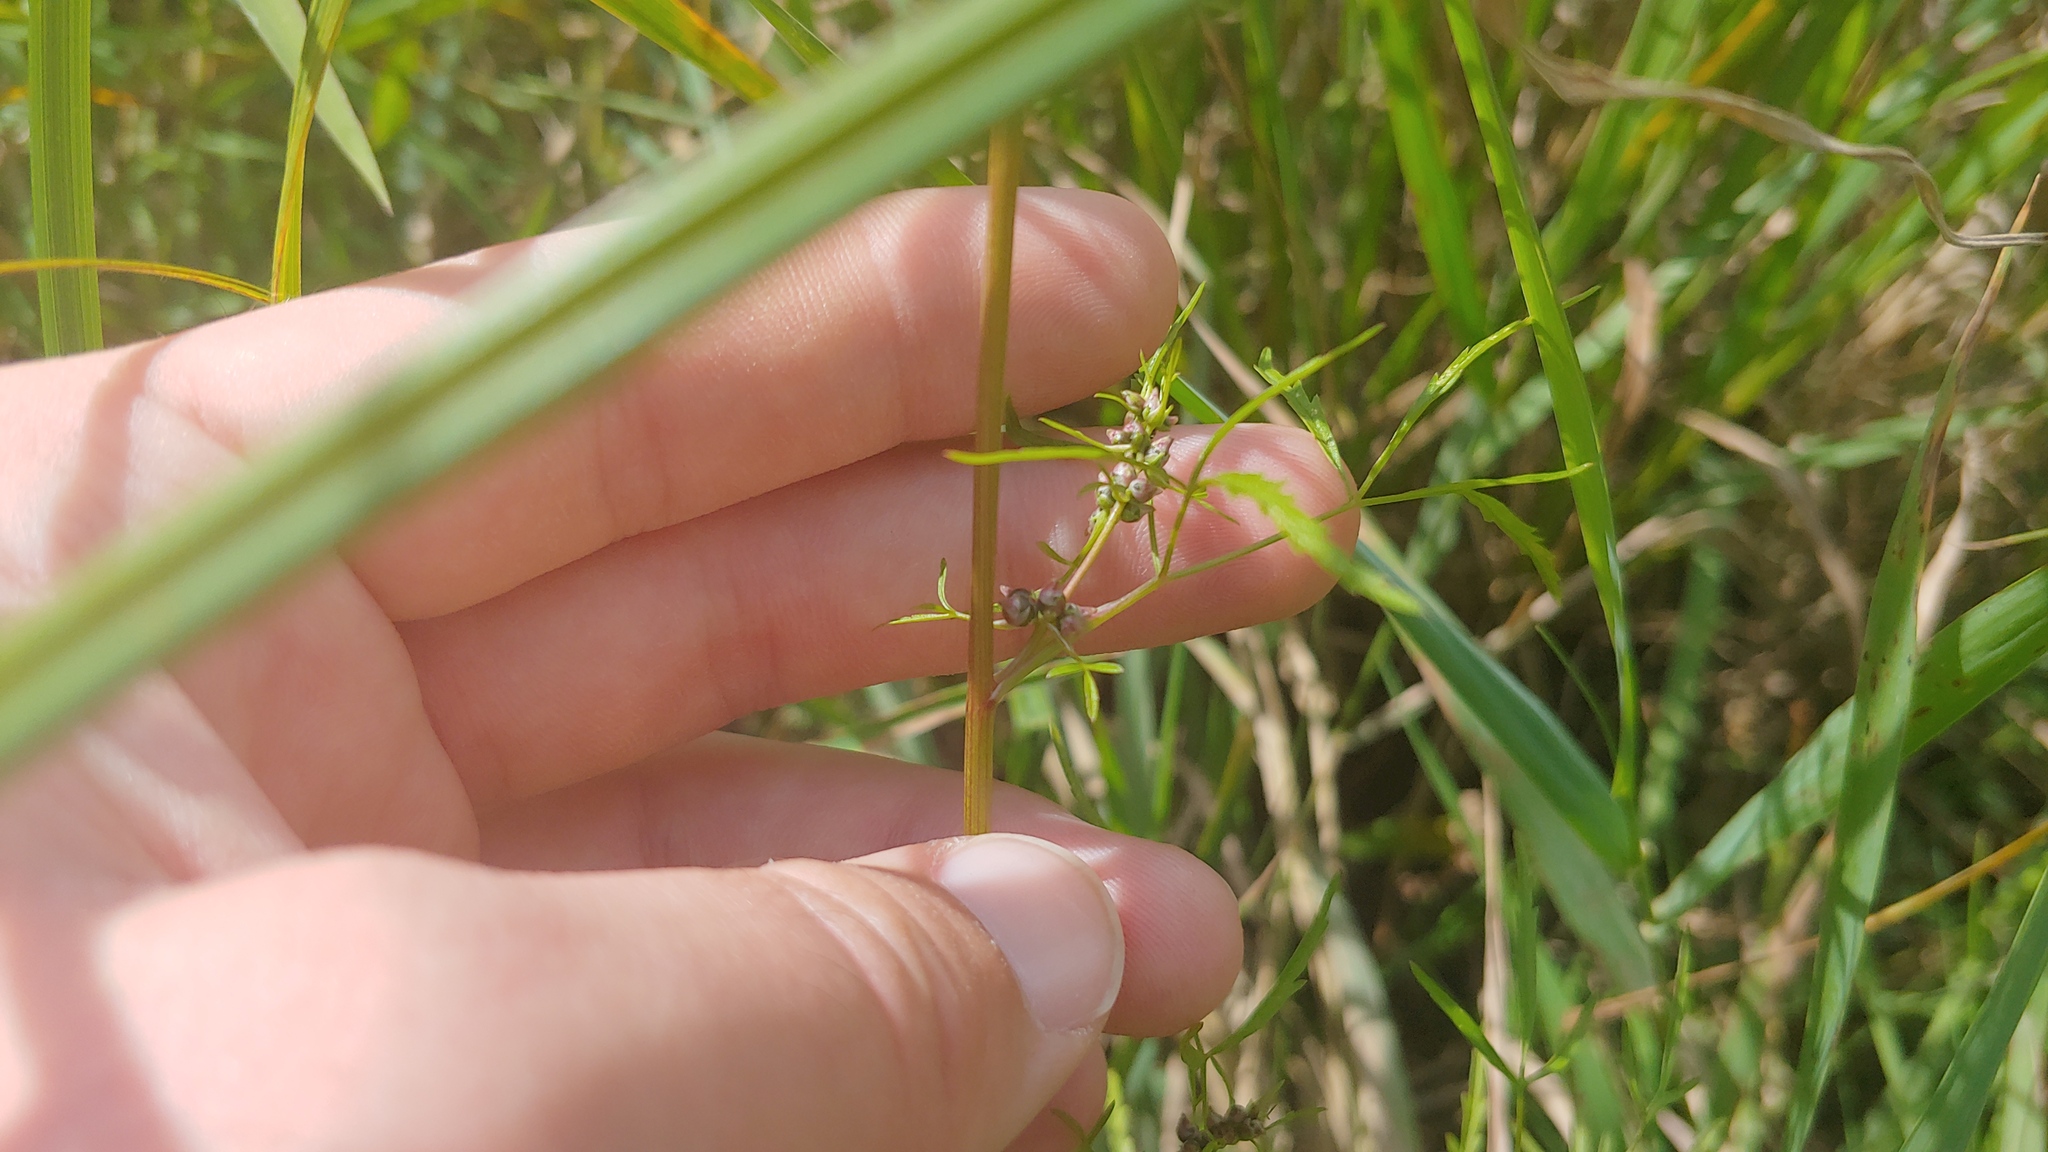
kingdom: Plantae
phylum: Tracheophyta
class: Magnoliopsida
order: Apiales
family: Apiaceae
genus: Cicuta
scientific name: Cicuta bulbifera
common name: Bulb-bearing water-hemlock
